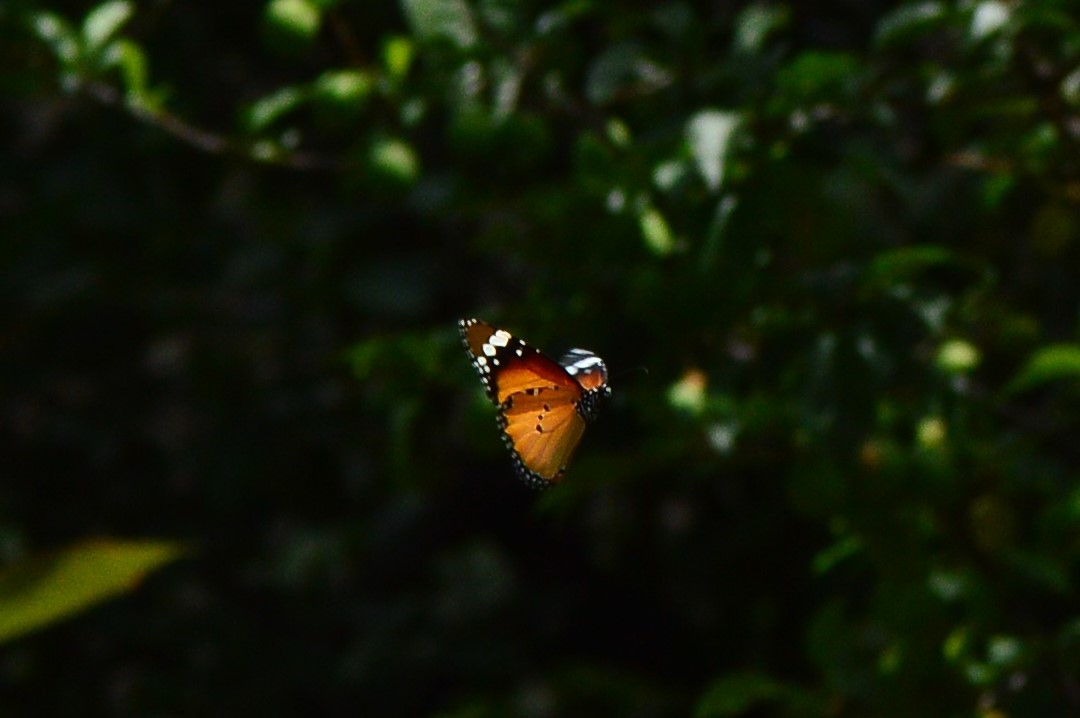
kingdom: Animalia
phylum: Arthropoda
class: Insecta
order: Lepidoptera
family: Nymphalidae
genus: Danaus
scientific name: Danaus chrysippus
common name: Plain tiger
